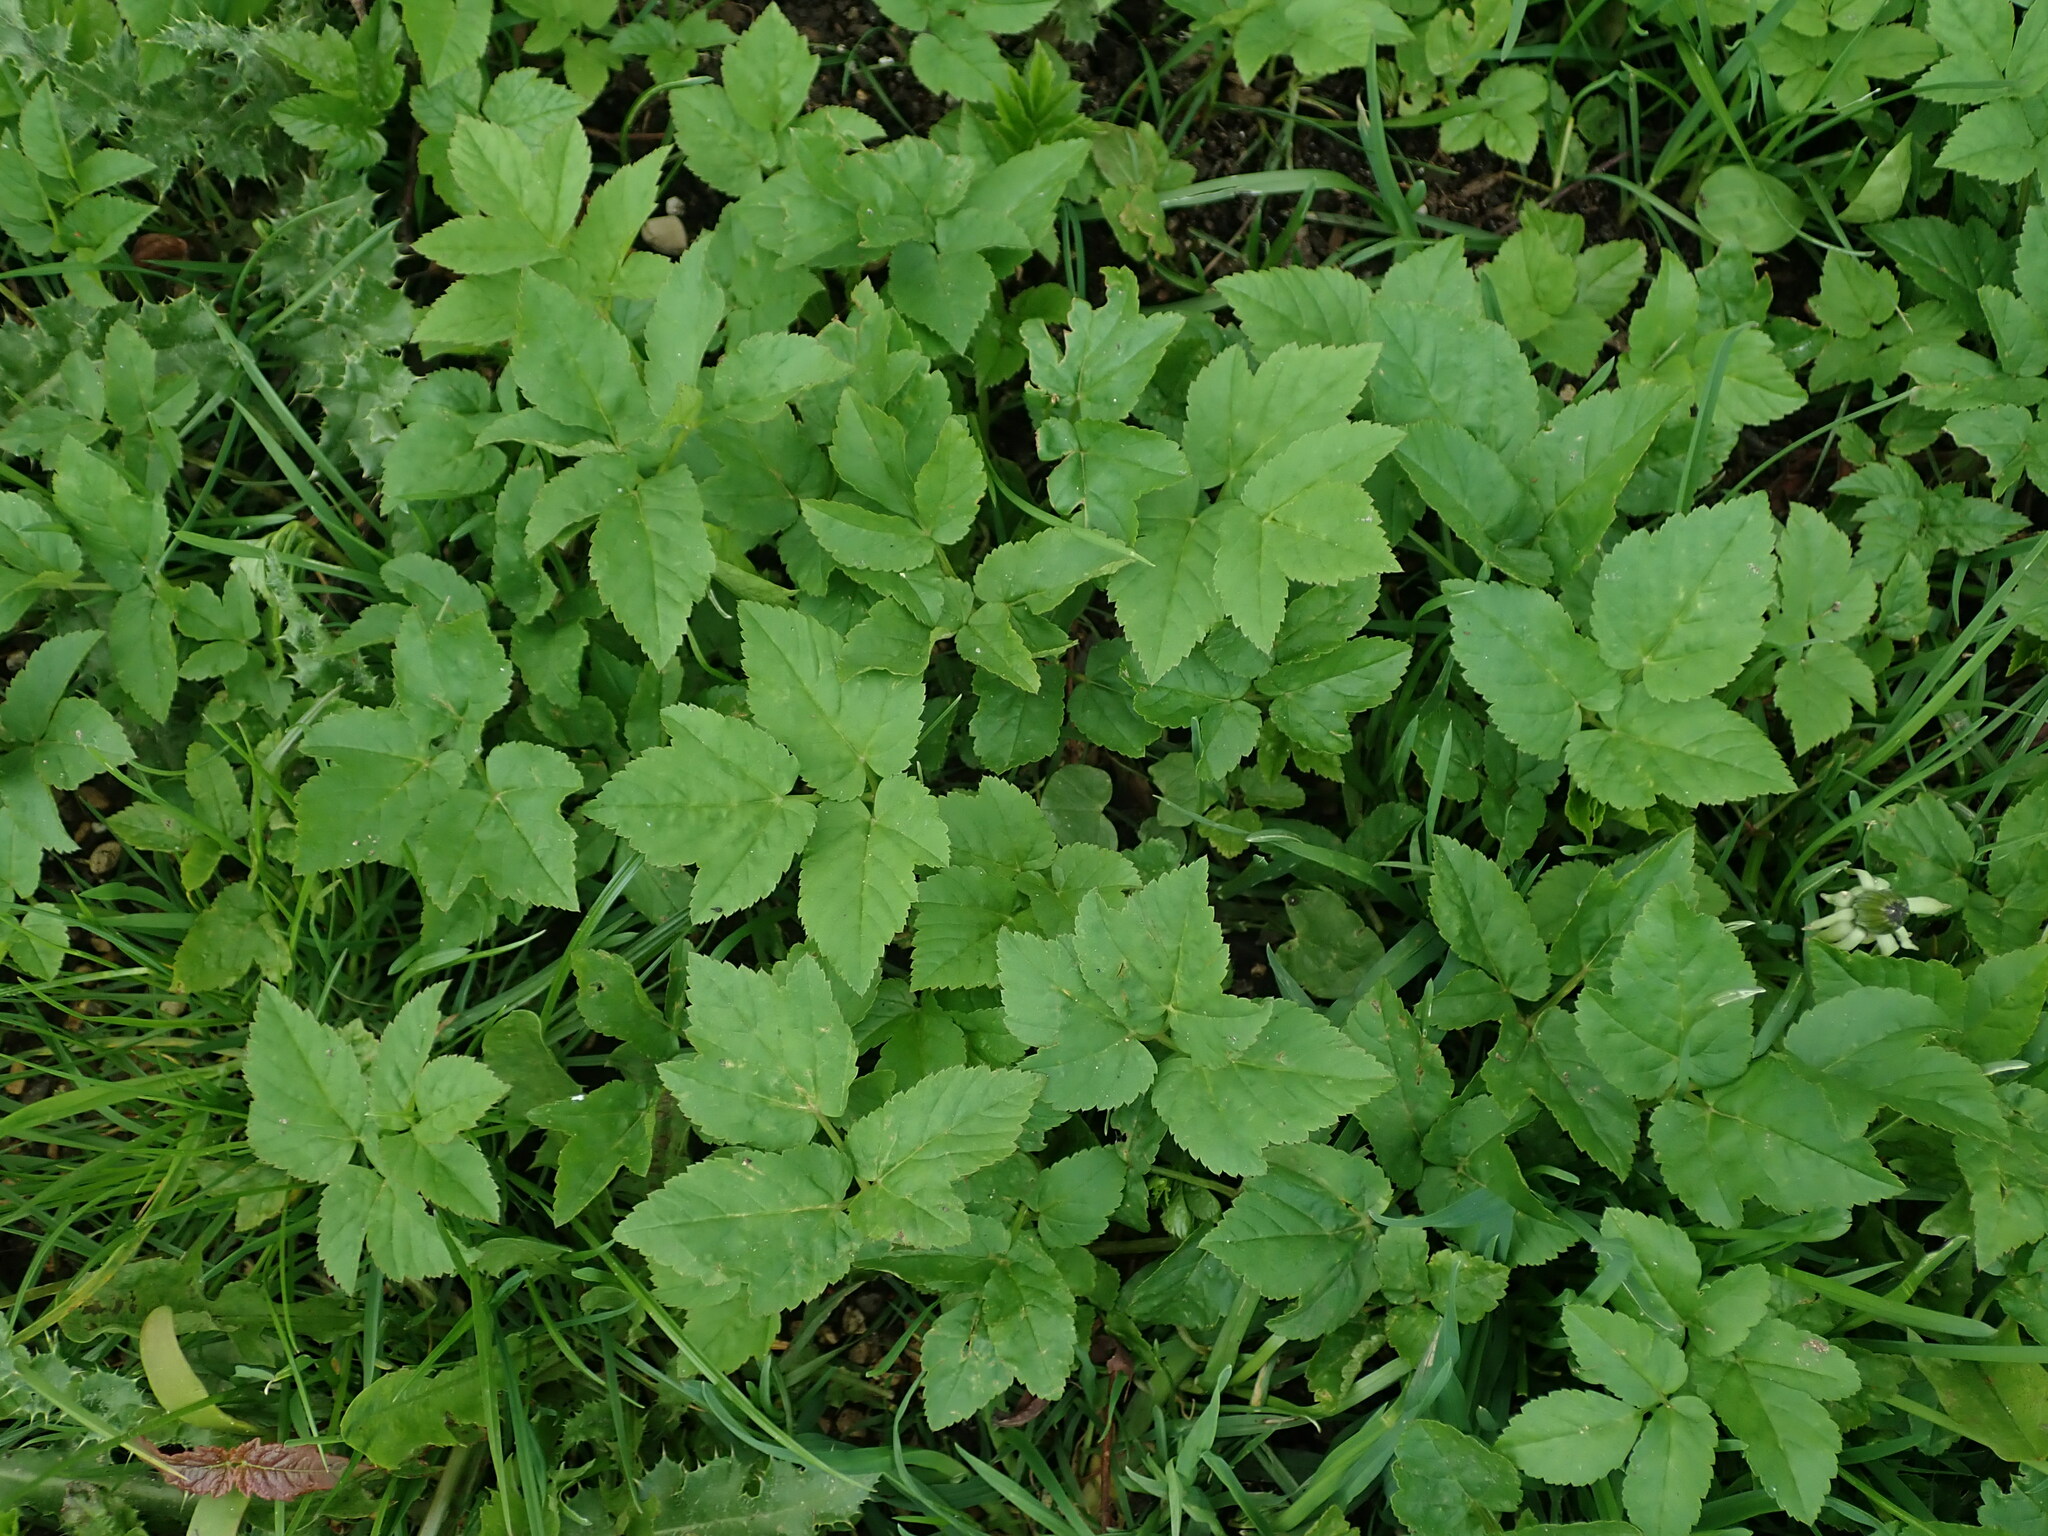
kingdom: Plantae
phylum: Tracheophyta
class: Magnoliopsida
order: Apiales
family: Apiaceae
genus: Aegopodium
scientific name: Aegopodium podagraria
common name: Ground-elder
